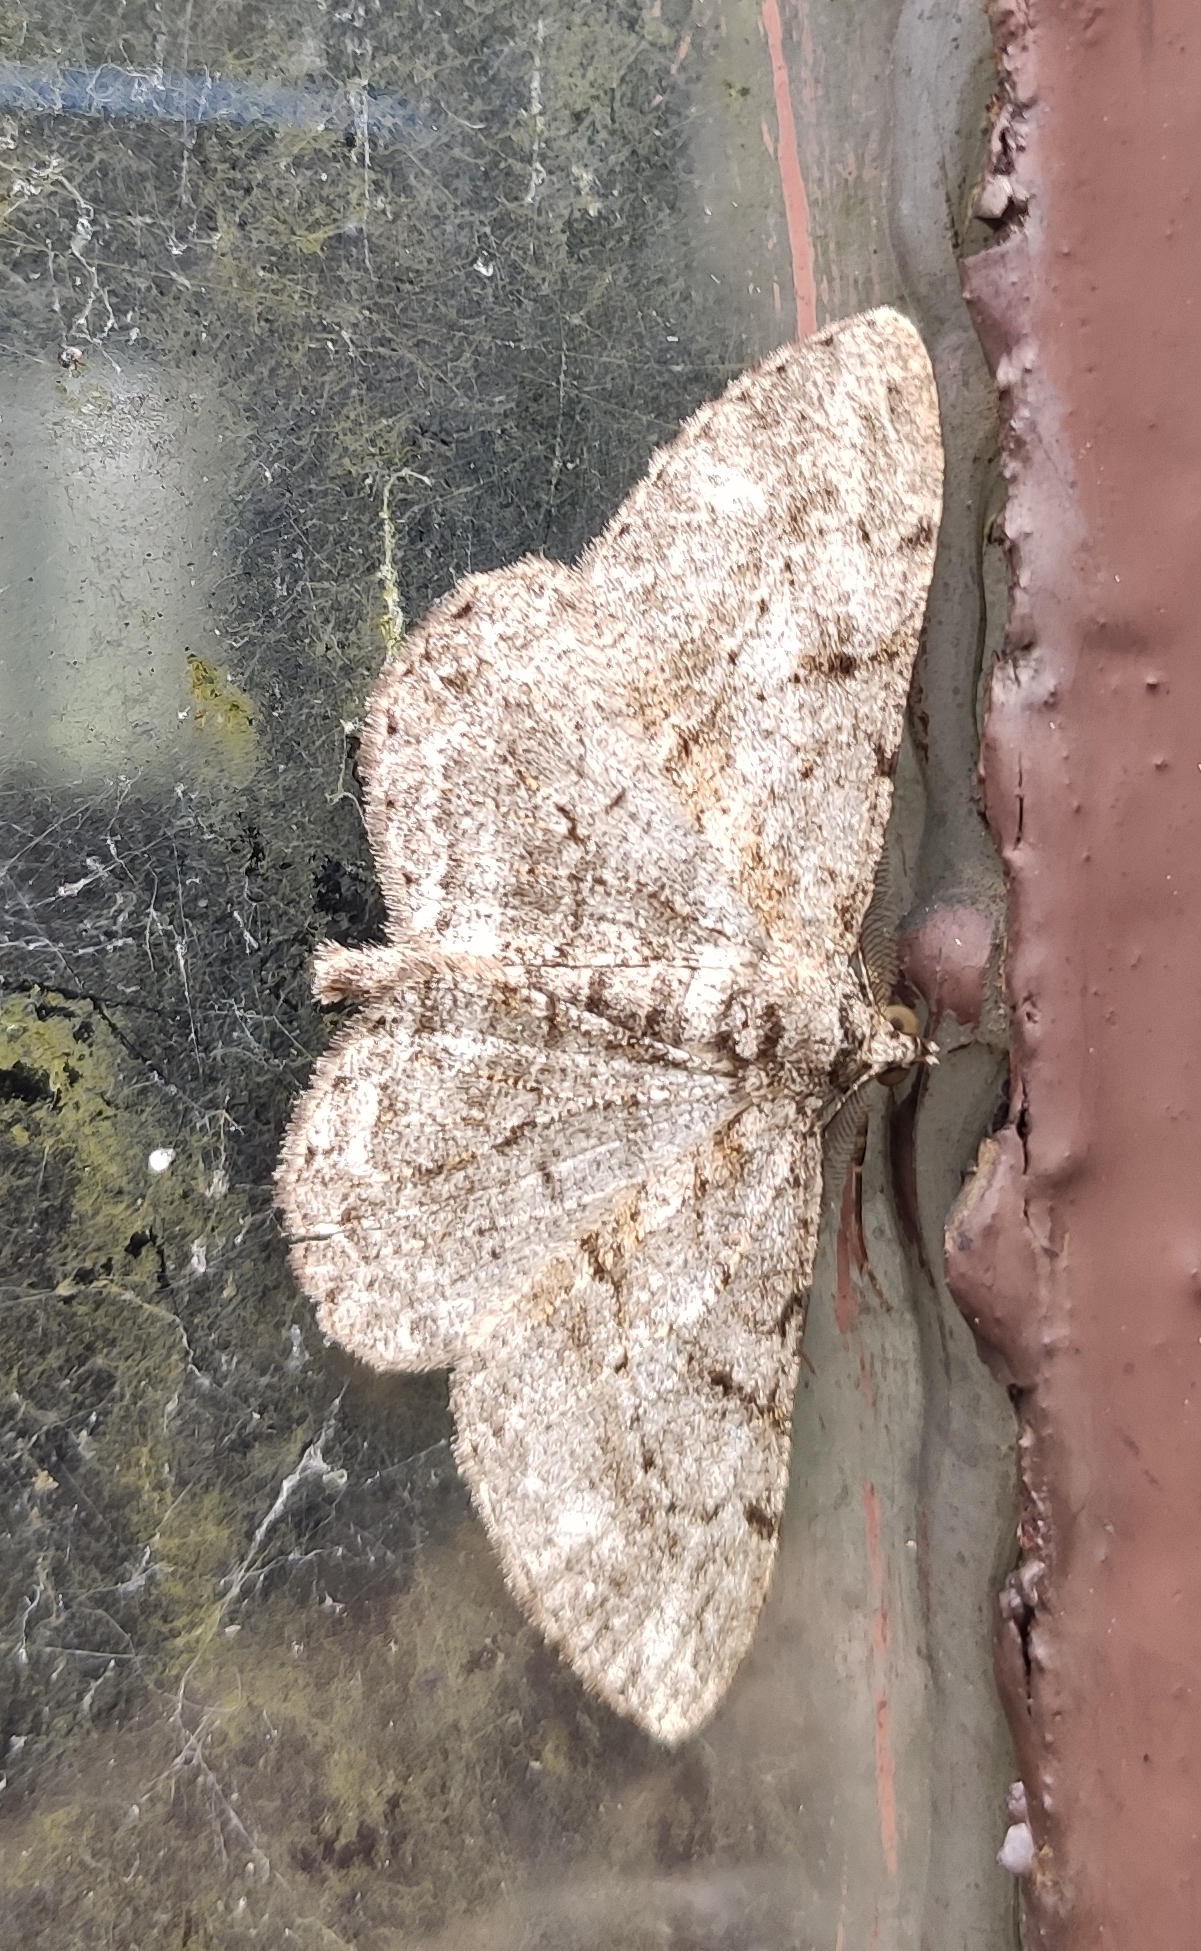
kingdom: Animalia
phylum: Arthropoda
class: Insecta
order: Lepidoptera
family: Geometridae
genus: Peribatodes
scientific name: Peribatodes rhomboidaria
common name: Willow beauty
